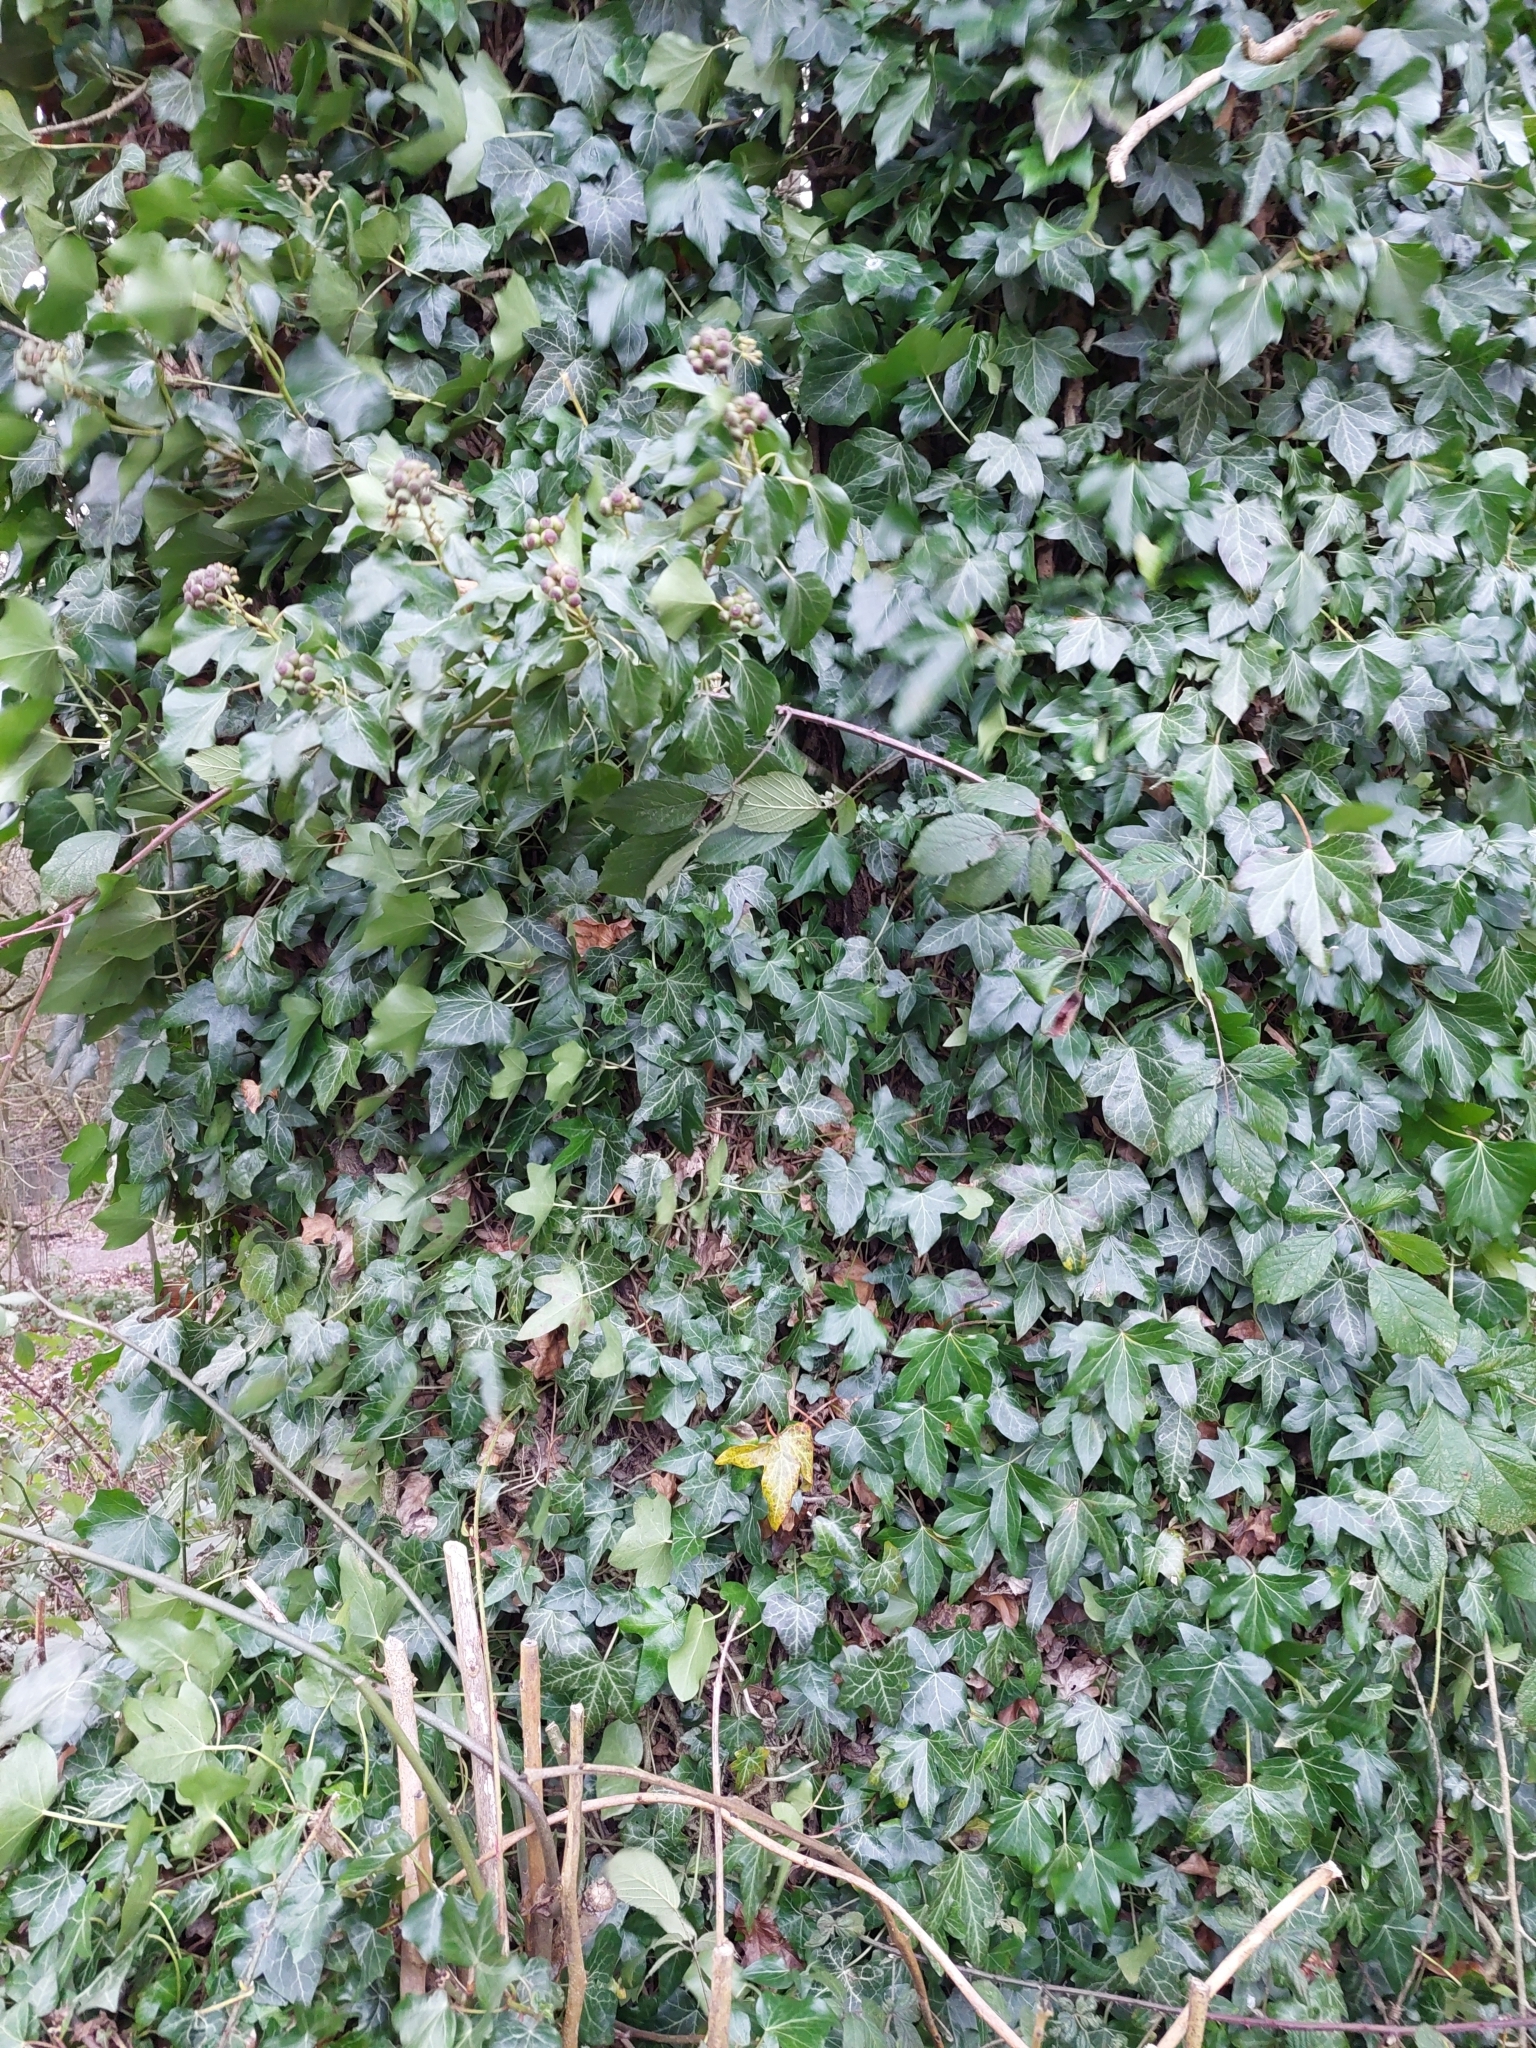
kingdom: Plantae
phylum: Tracheophyta
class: Magnoliopsida
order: Apiales
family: Araliaceae
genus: Hedera
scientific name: Hedera helix
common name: Ivy
